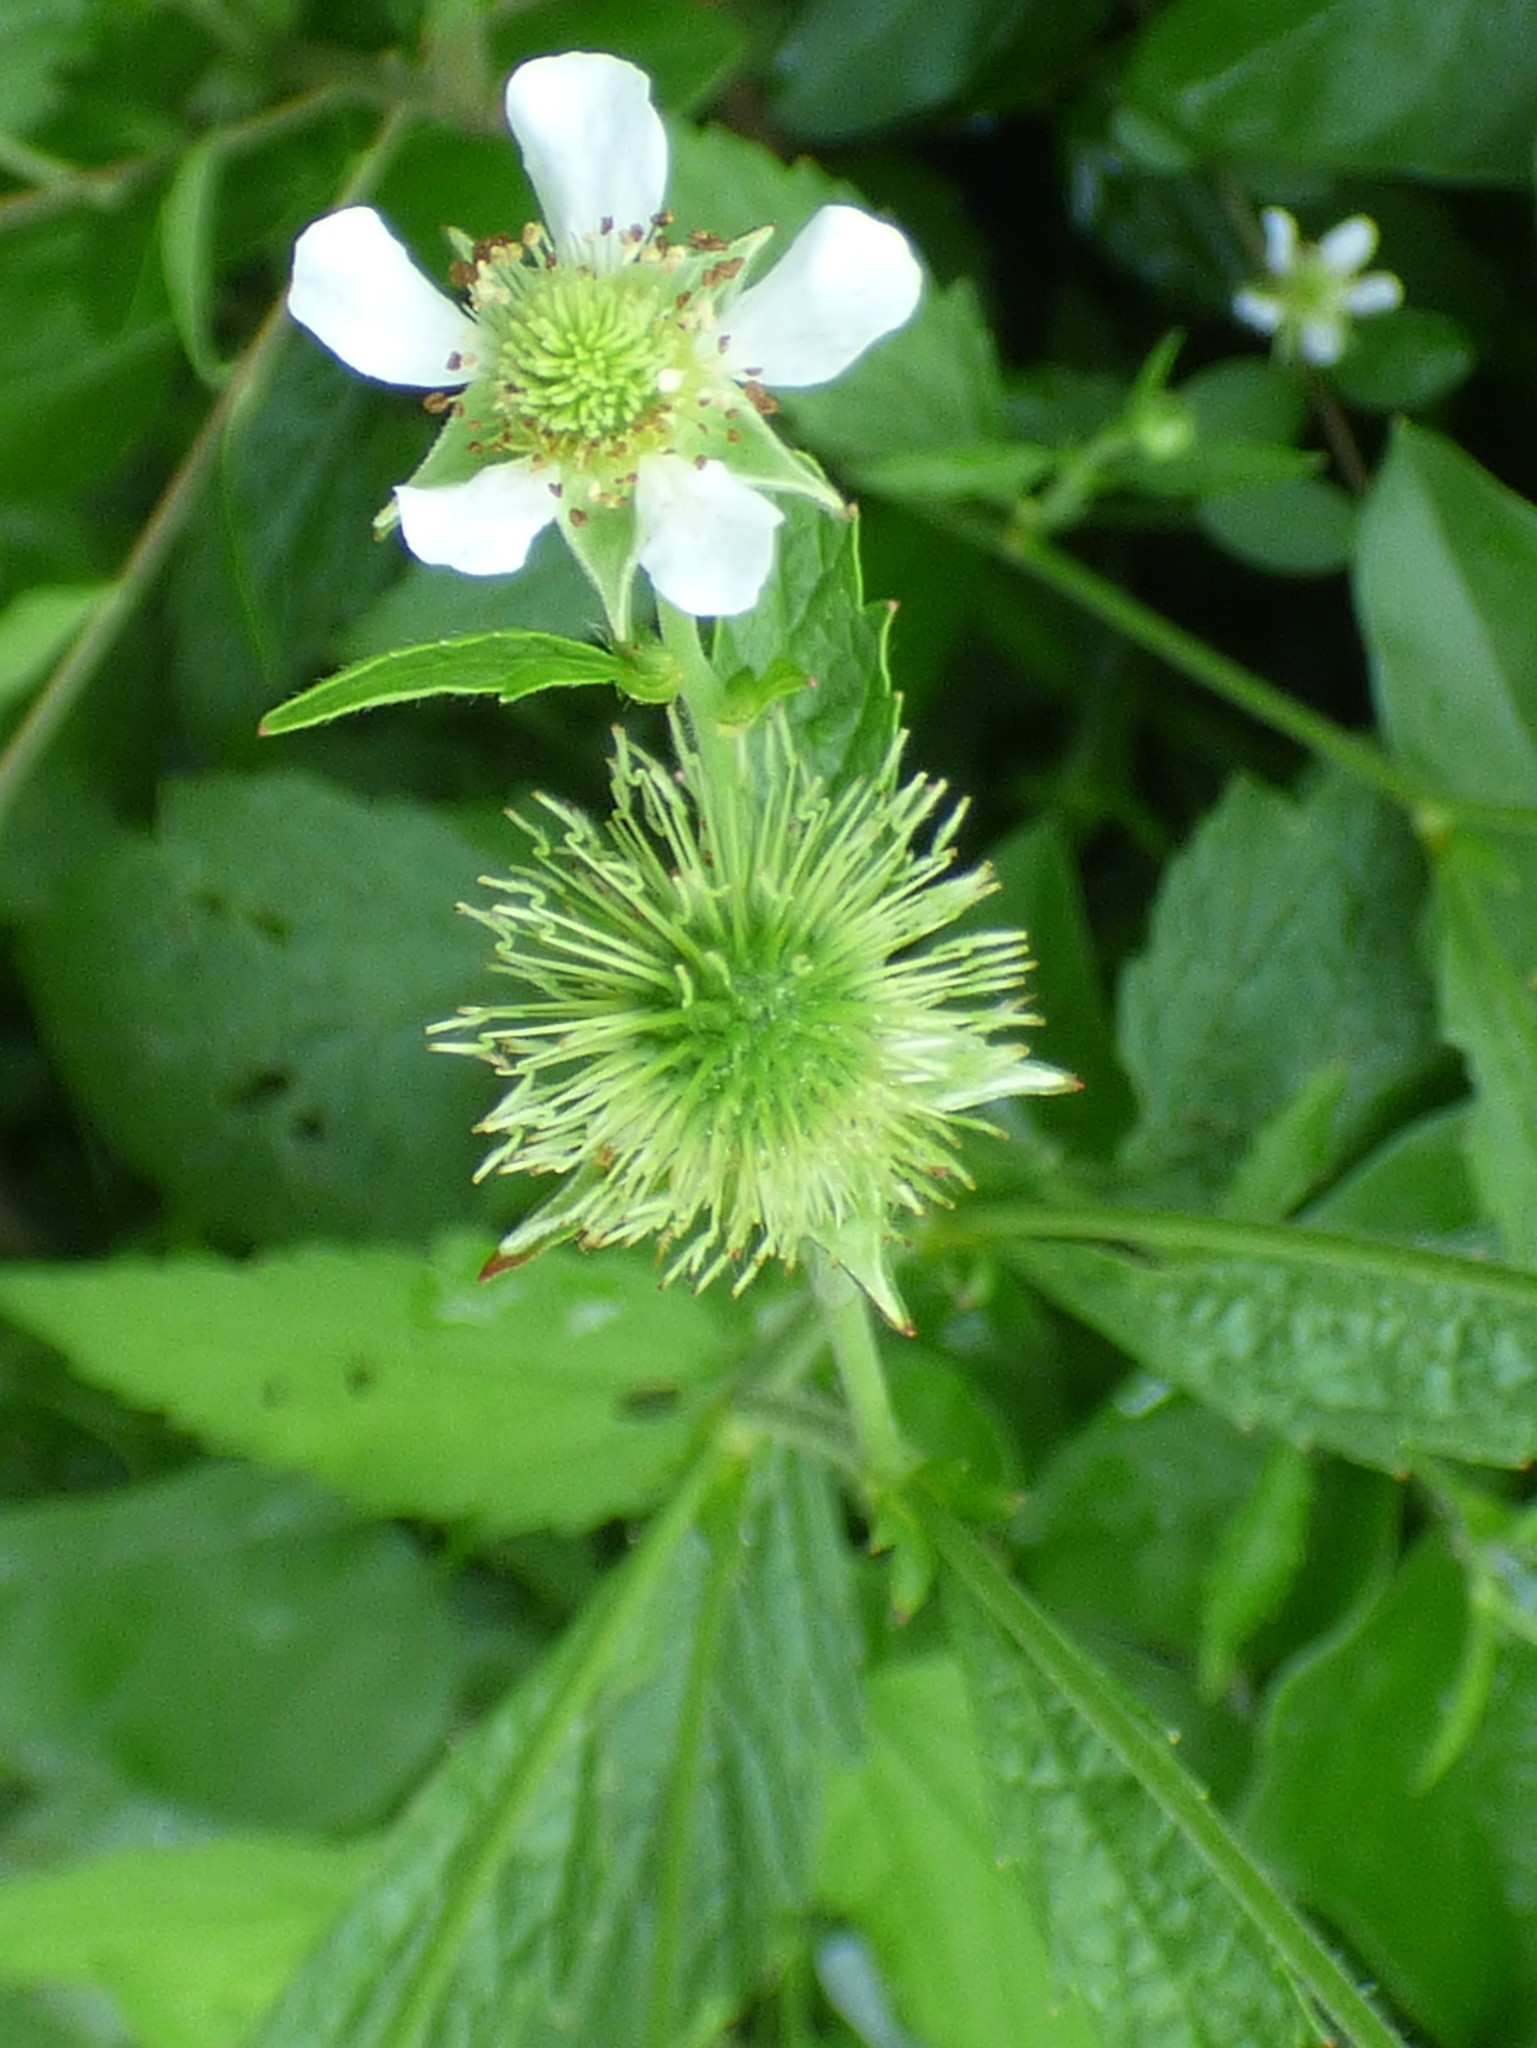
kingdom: Plantae
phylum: Tracheophyta
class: Magnoliopsida
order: Rosales
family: Rosaceae
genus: Geum
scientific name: Geum canadense
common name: White avens
